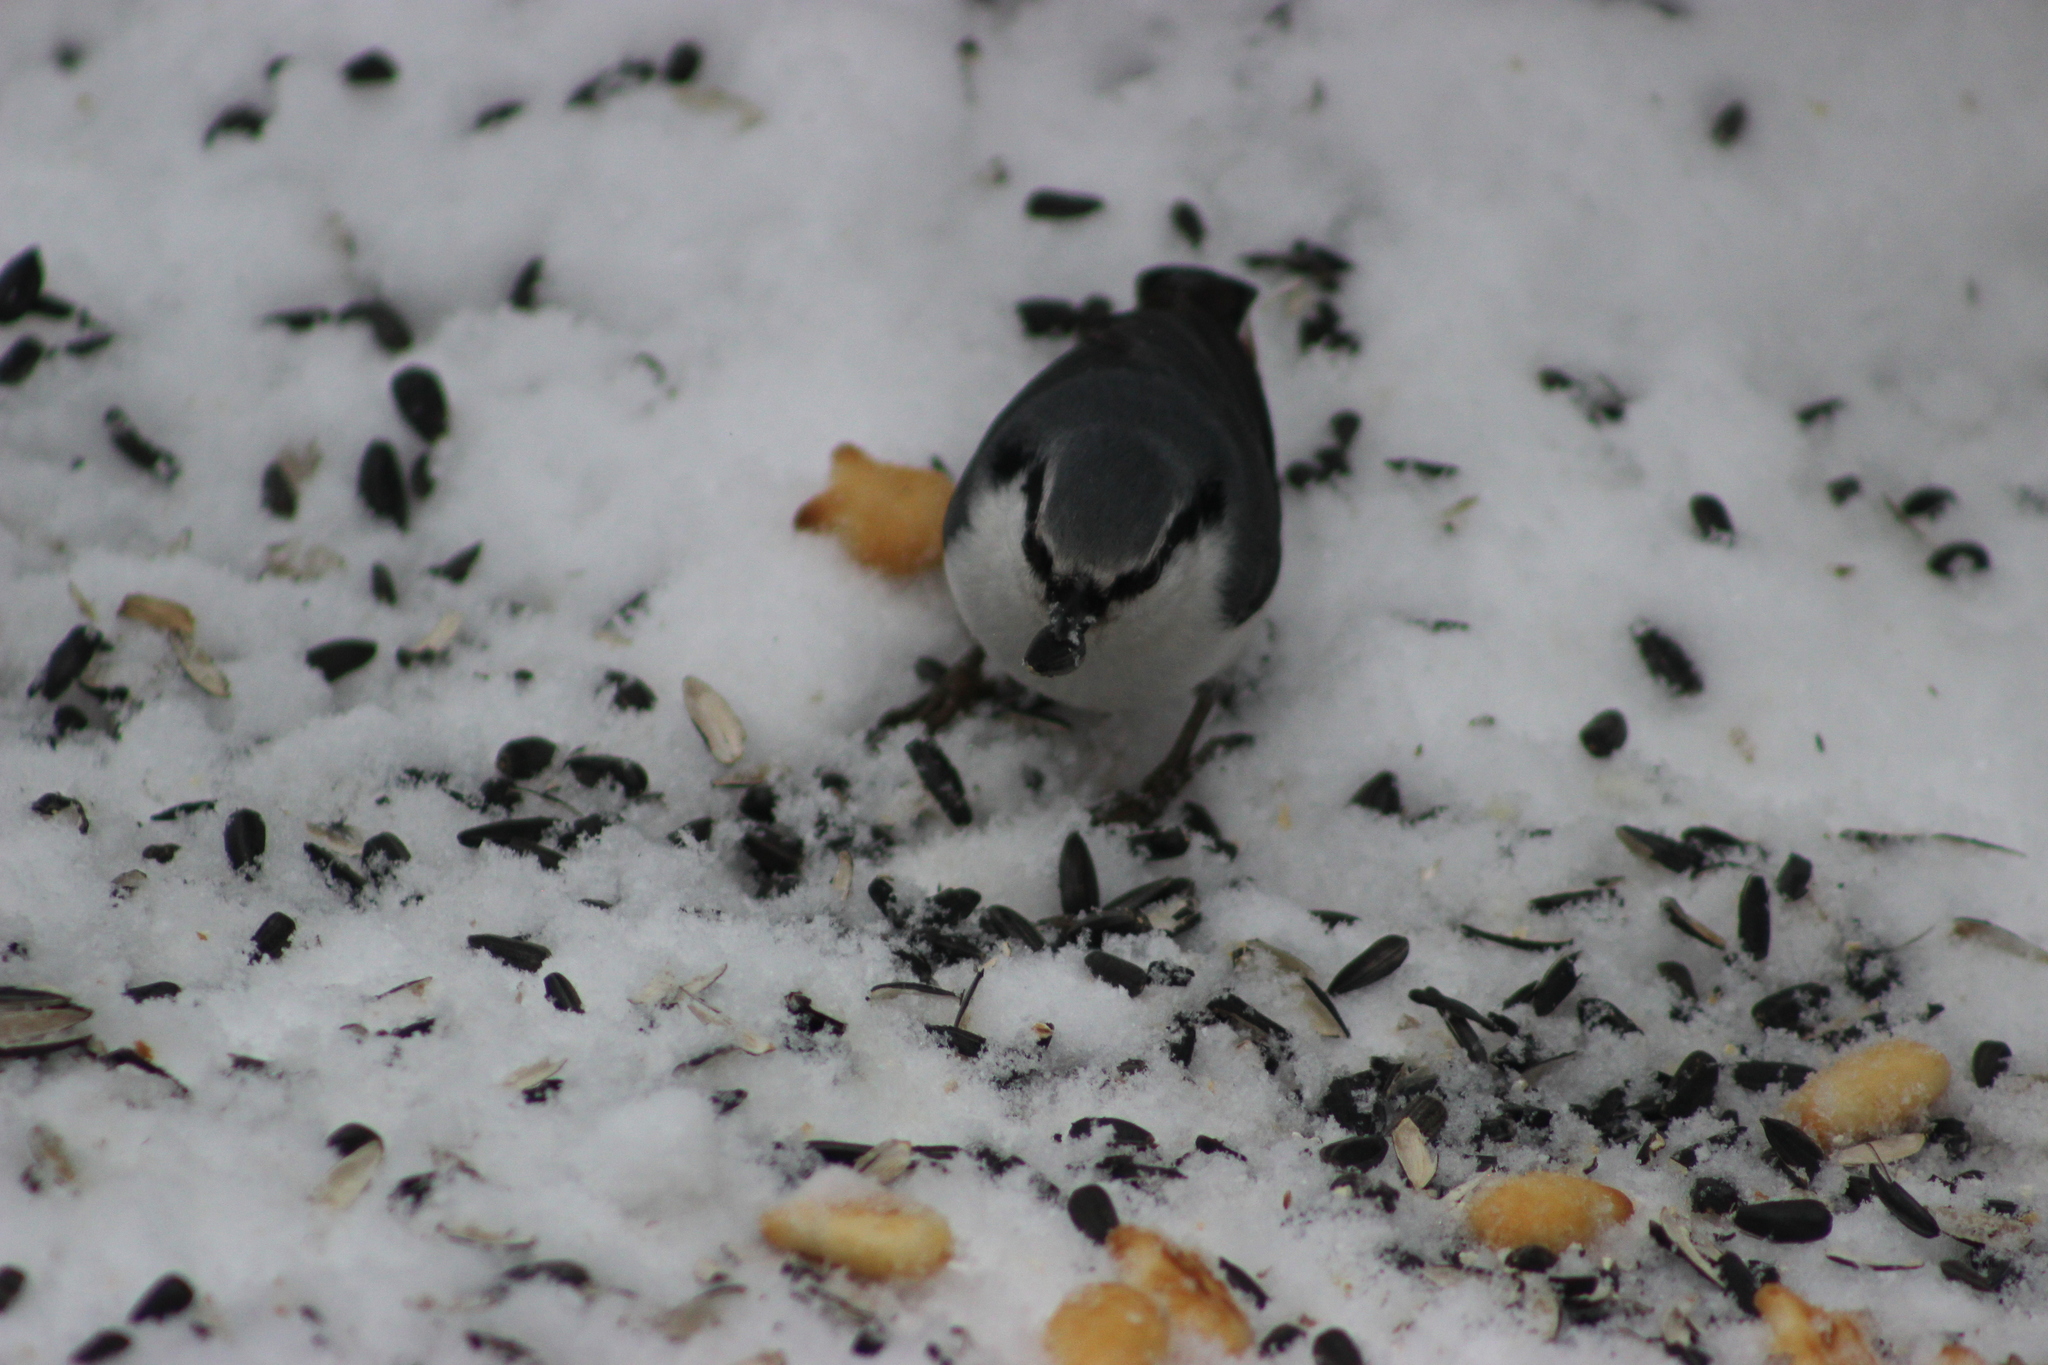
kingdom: Animalia
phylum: Chordata
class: Aves
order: Passeriformes
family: Sittidae
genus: Sitta
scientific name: Sitta europaea
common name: Eurasian nuthatch
